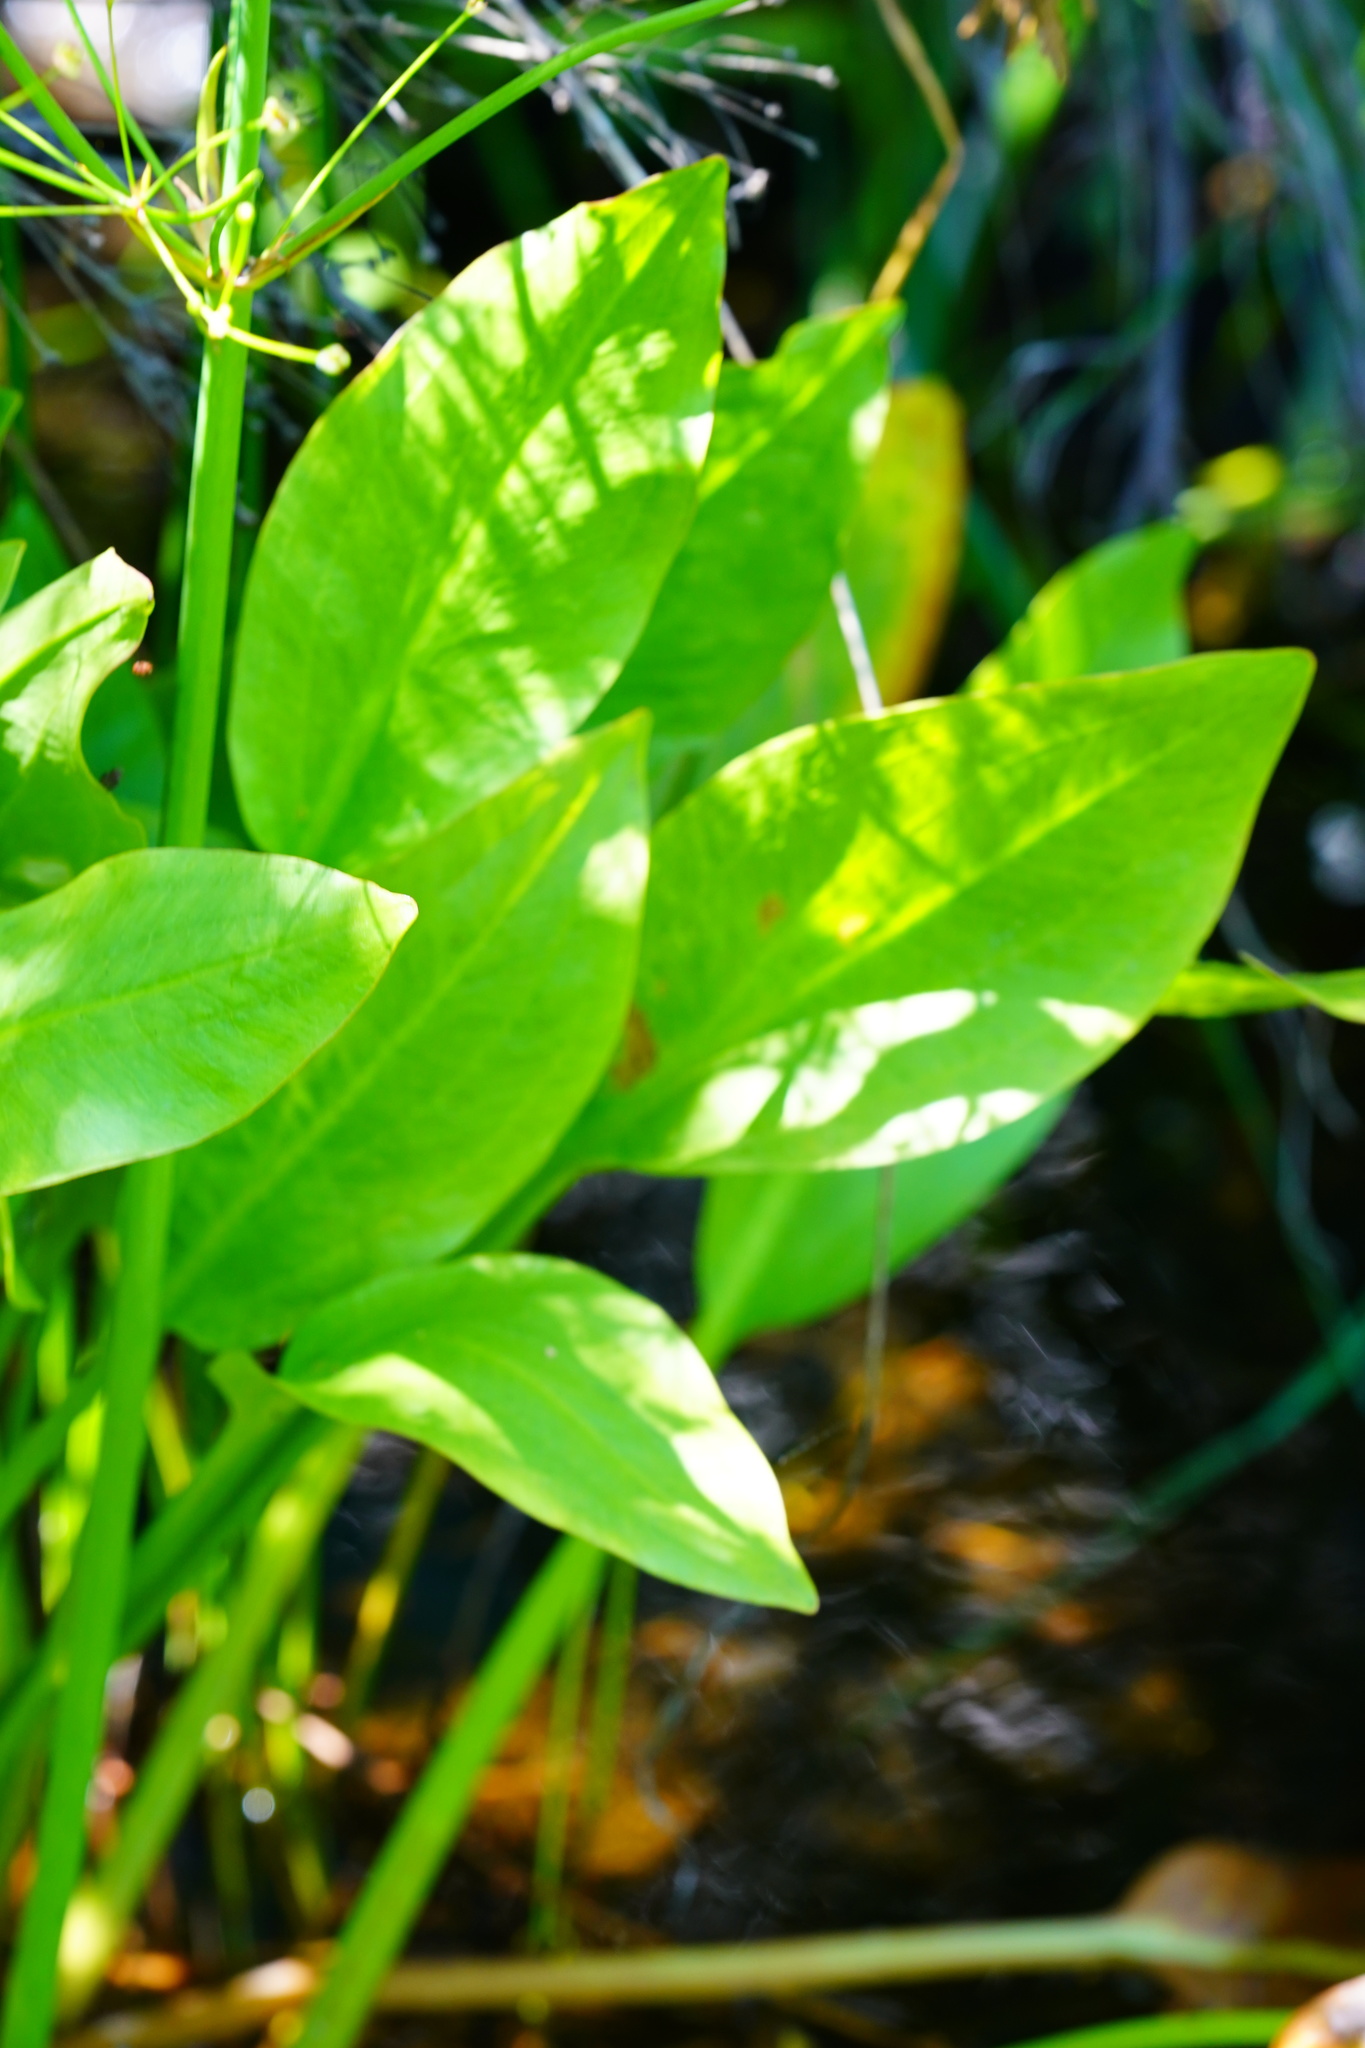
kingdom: Plantae
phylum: Tracheophyta
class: Liliopsida
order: Alismatales
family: Alismataceae
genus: Alisma
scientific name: Alisma triviale
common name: Northern water-plantain
